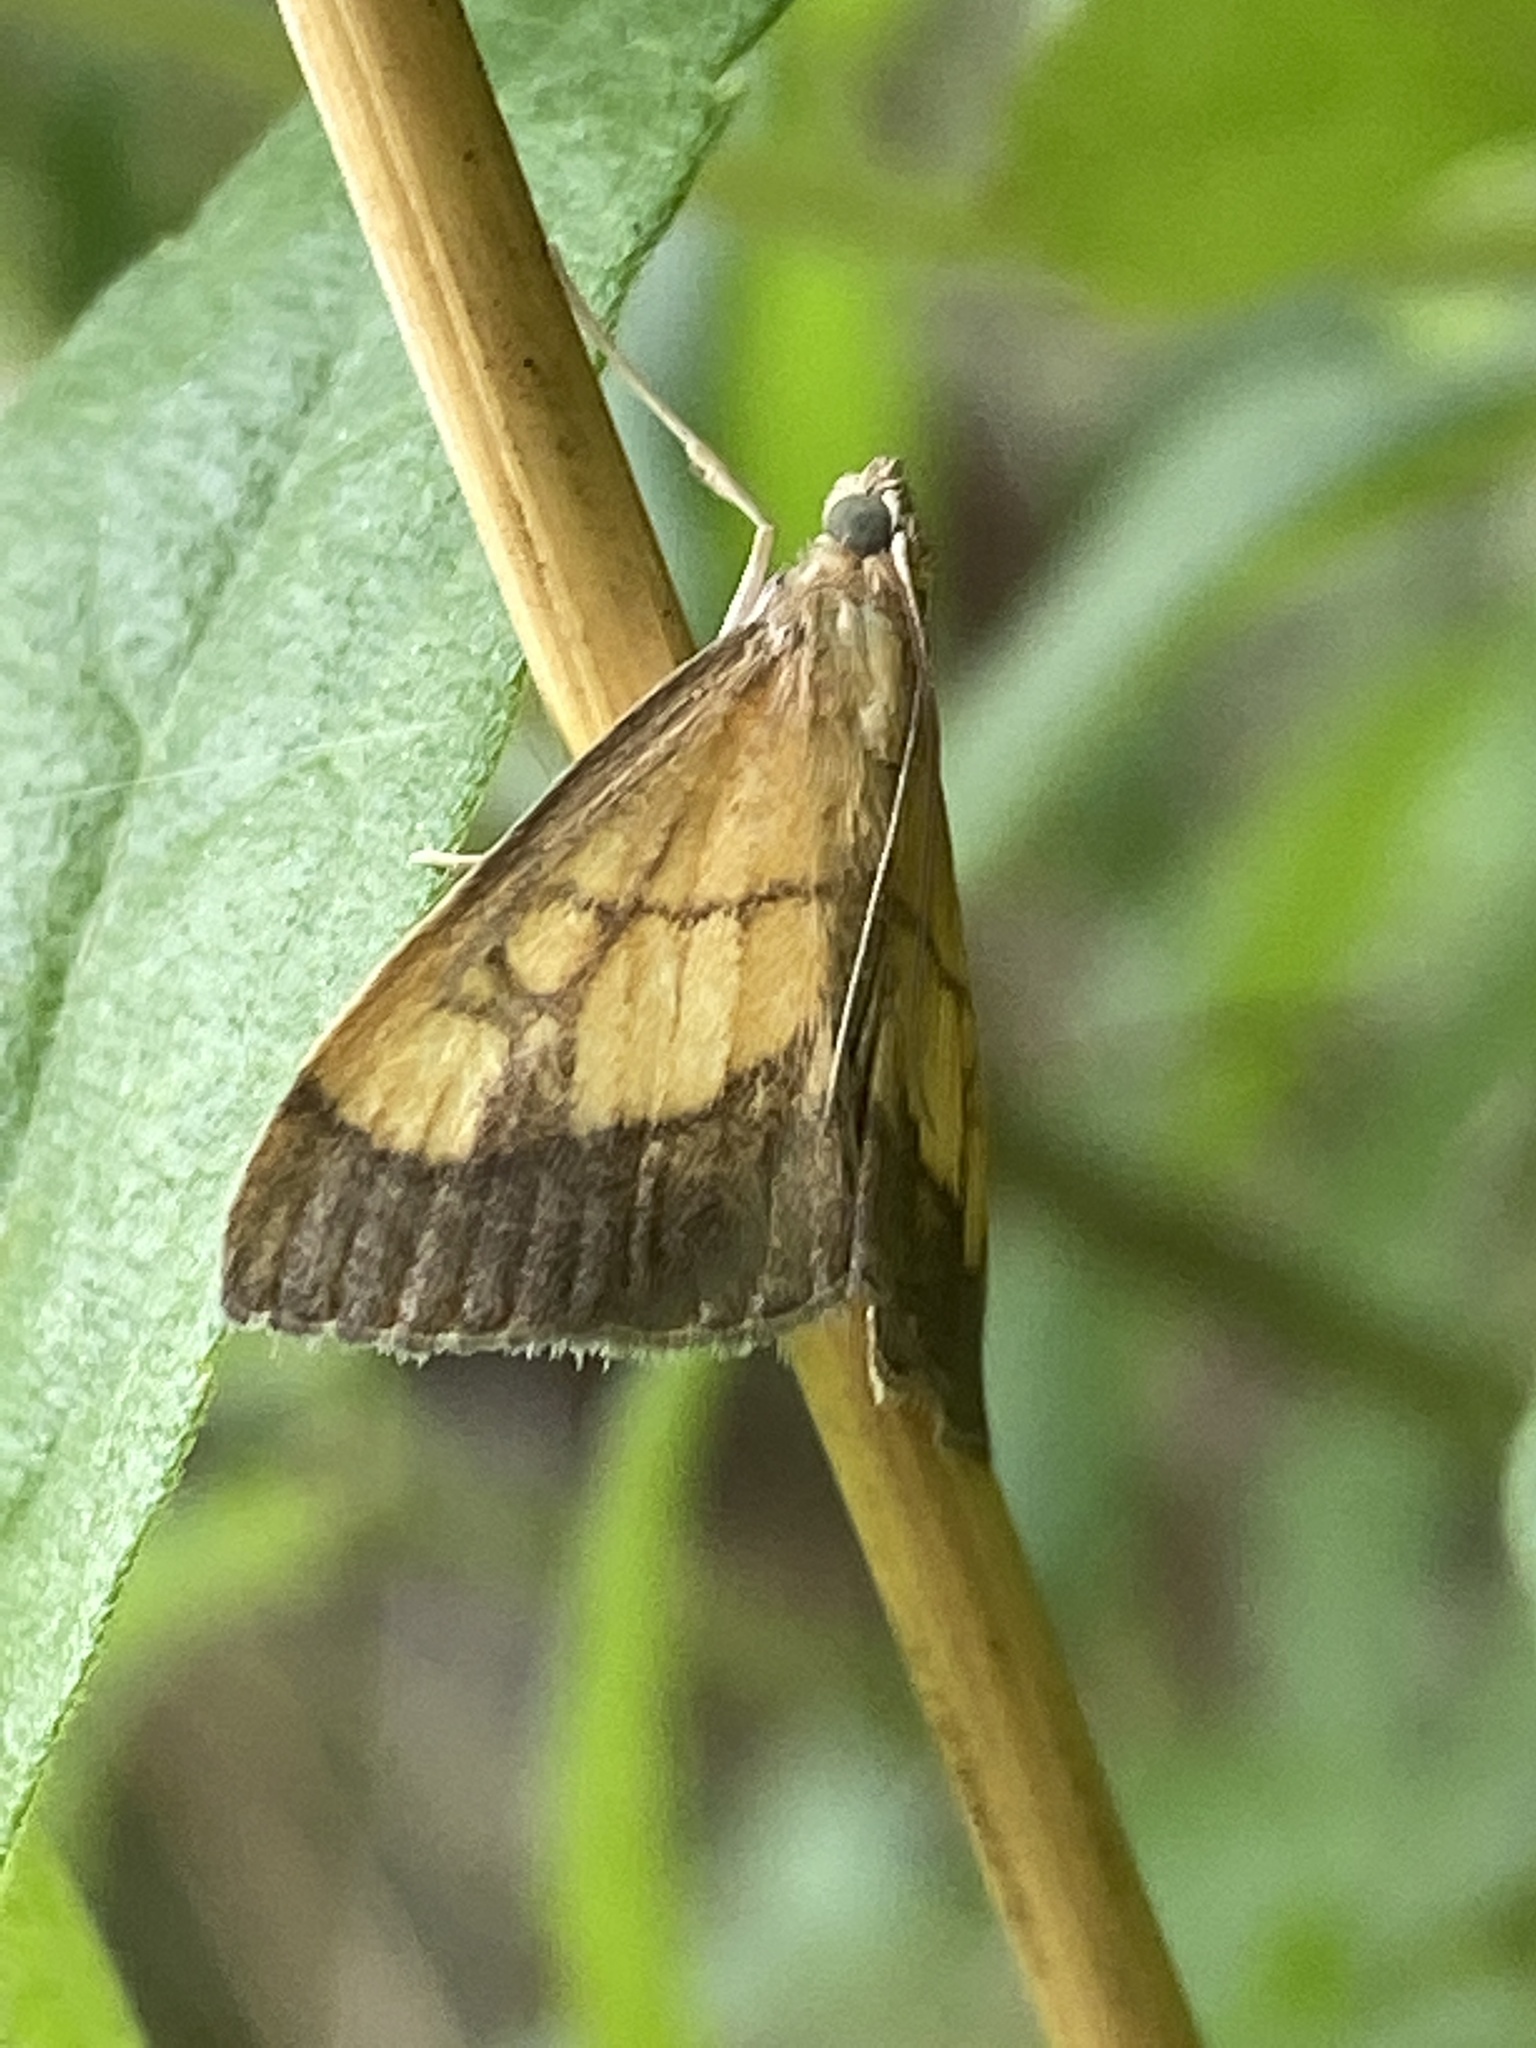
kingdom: Animalia
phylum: Arthropoda
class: Insecta
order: Lepidoptera
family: Crambidae
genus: Evergestis
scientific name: Evergestis limbata
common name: Dark bordered pearl
